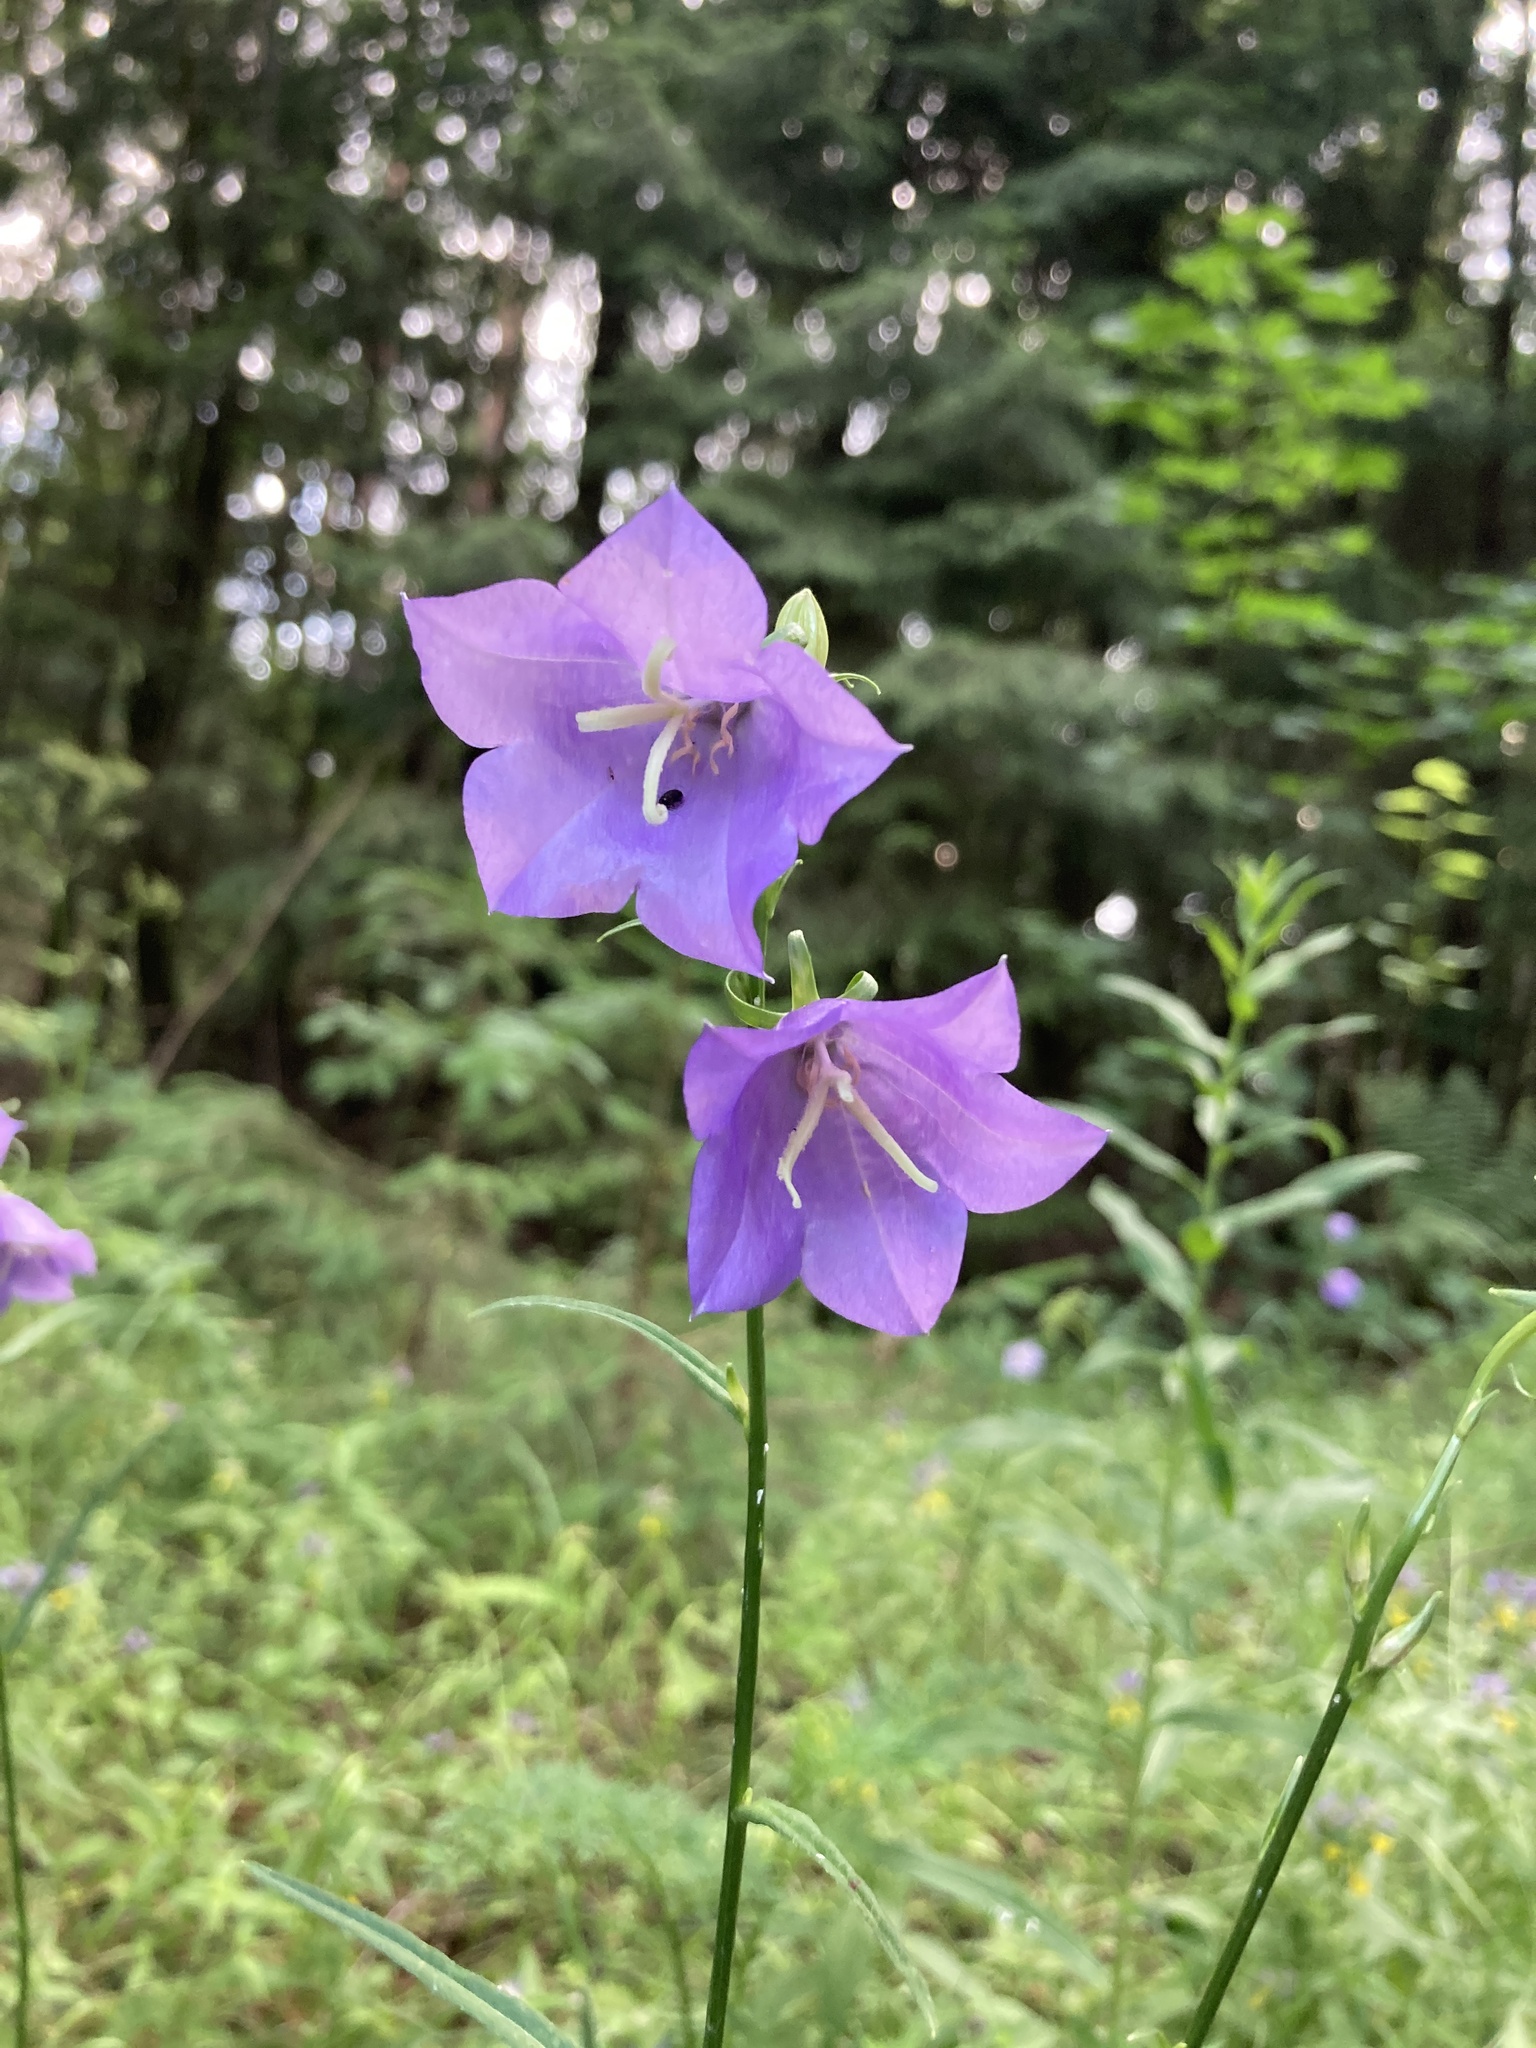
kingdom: Plantae
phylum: Tracheophyta
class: Magnoliopsida
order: Asterales
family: Campanulaceae
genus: Campanula
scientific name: Campanula persicifolia
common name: Peach-leaved bellflower
